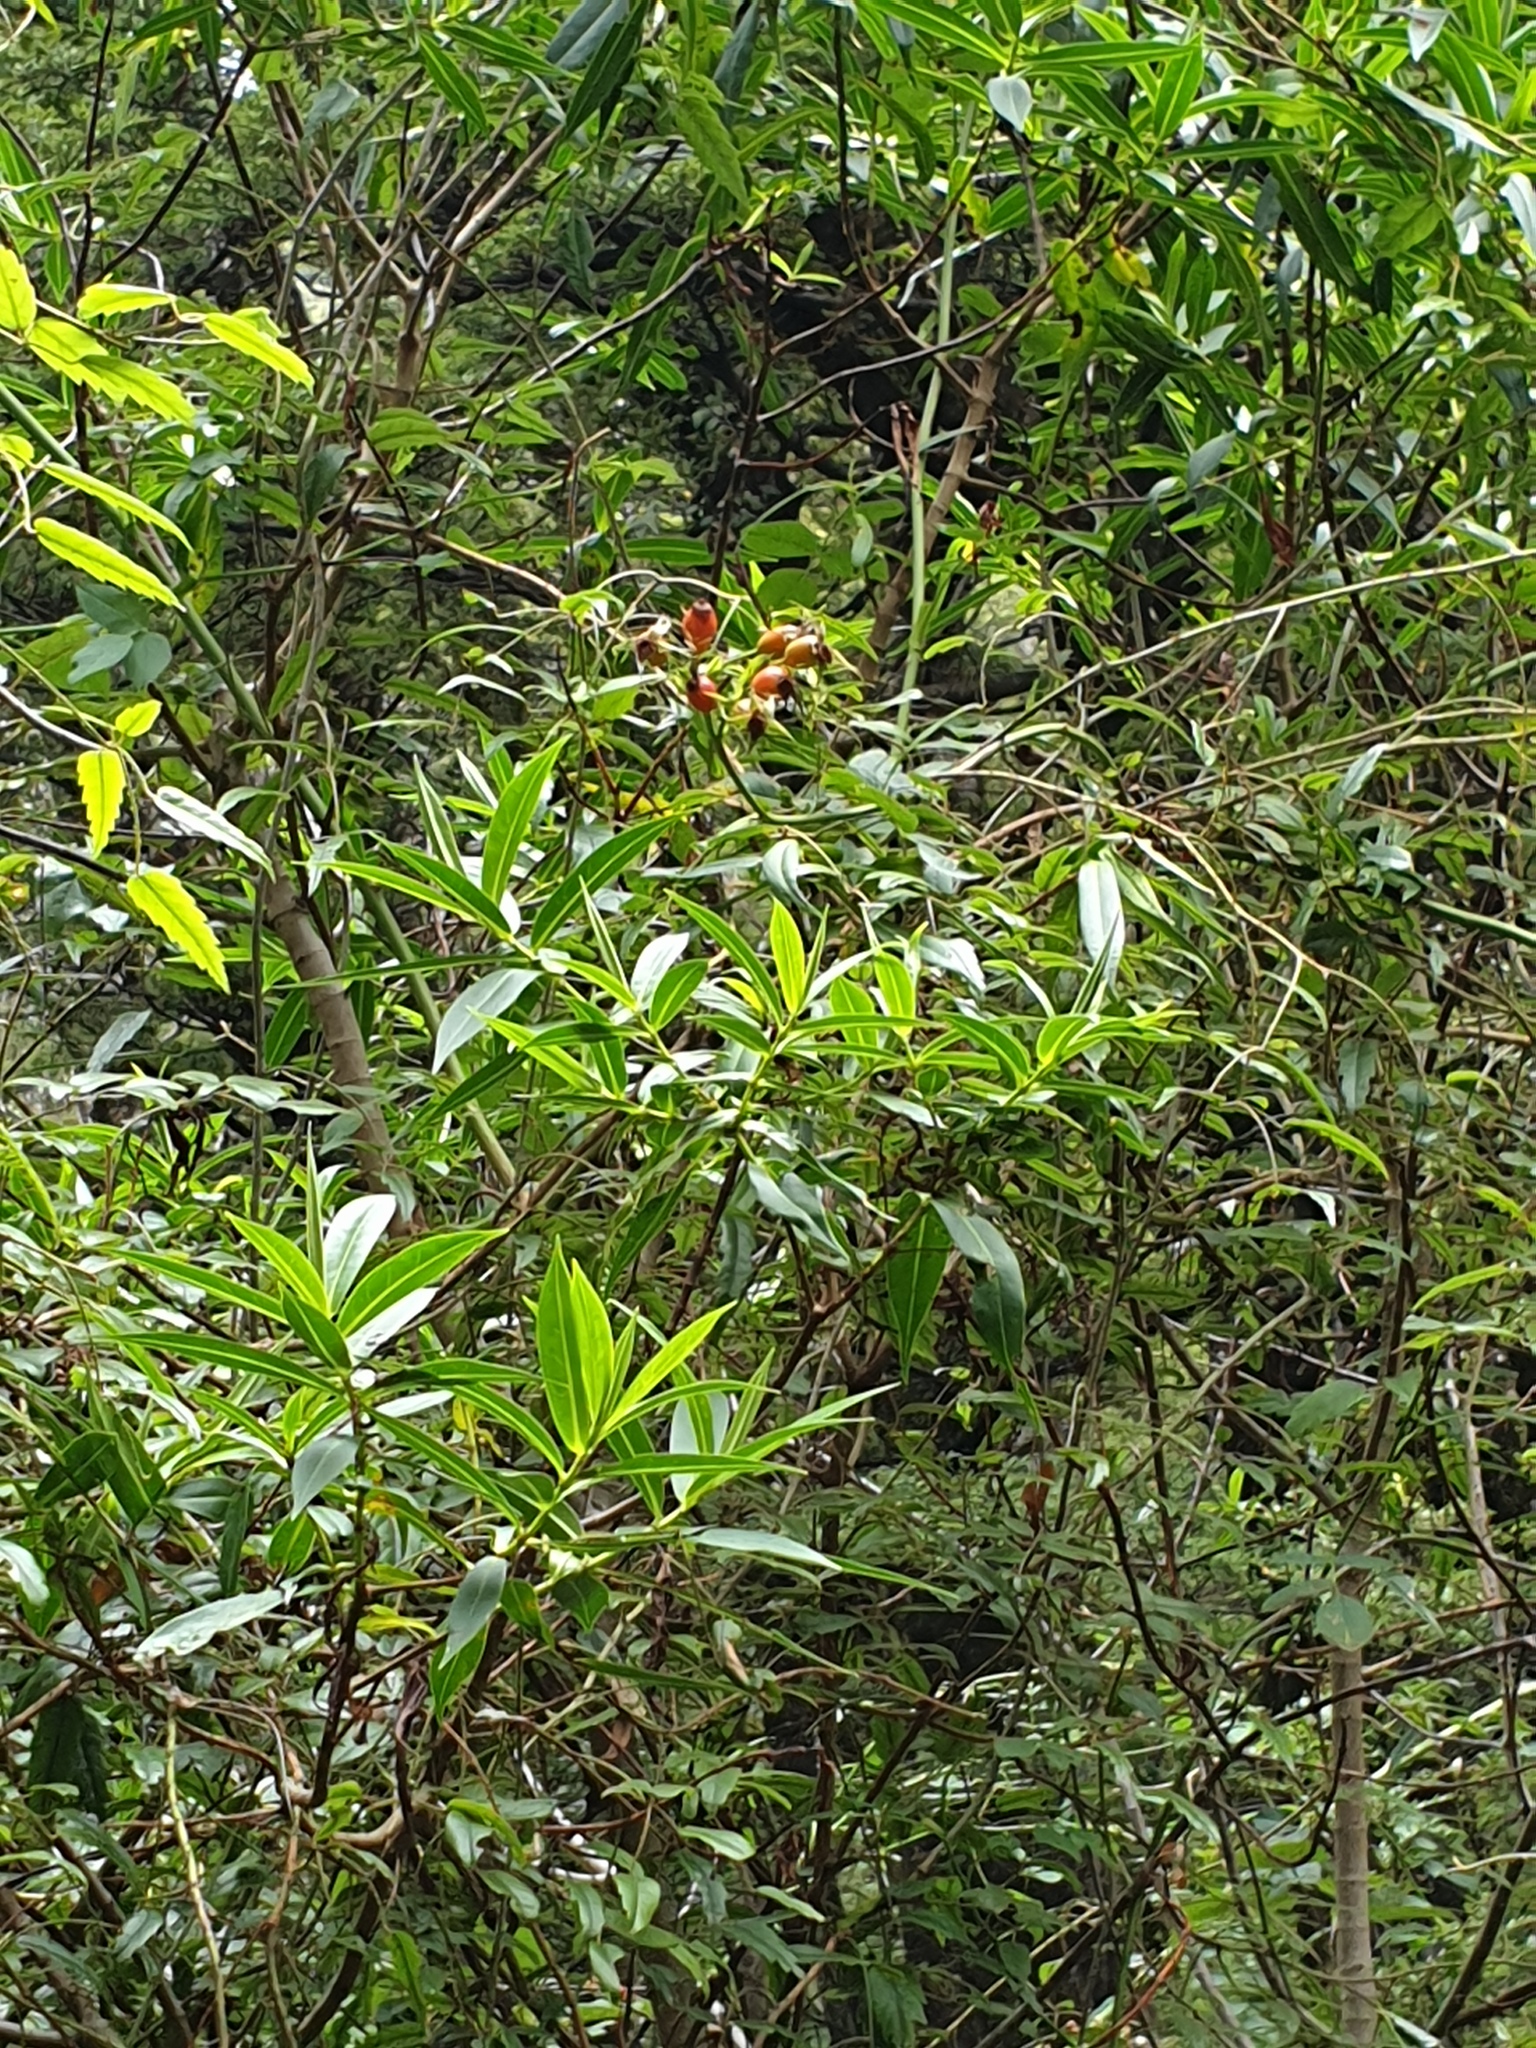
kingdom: Plantae
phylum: Tracheophyta
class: Magnoliopsida
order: Lamiales
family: Plantaginaceae
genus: Veronica
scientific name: Veronica salicifolia
